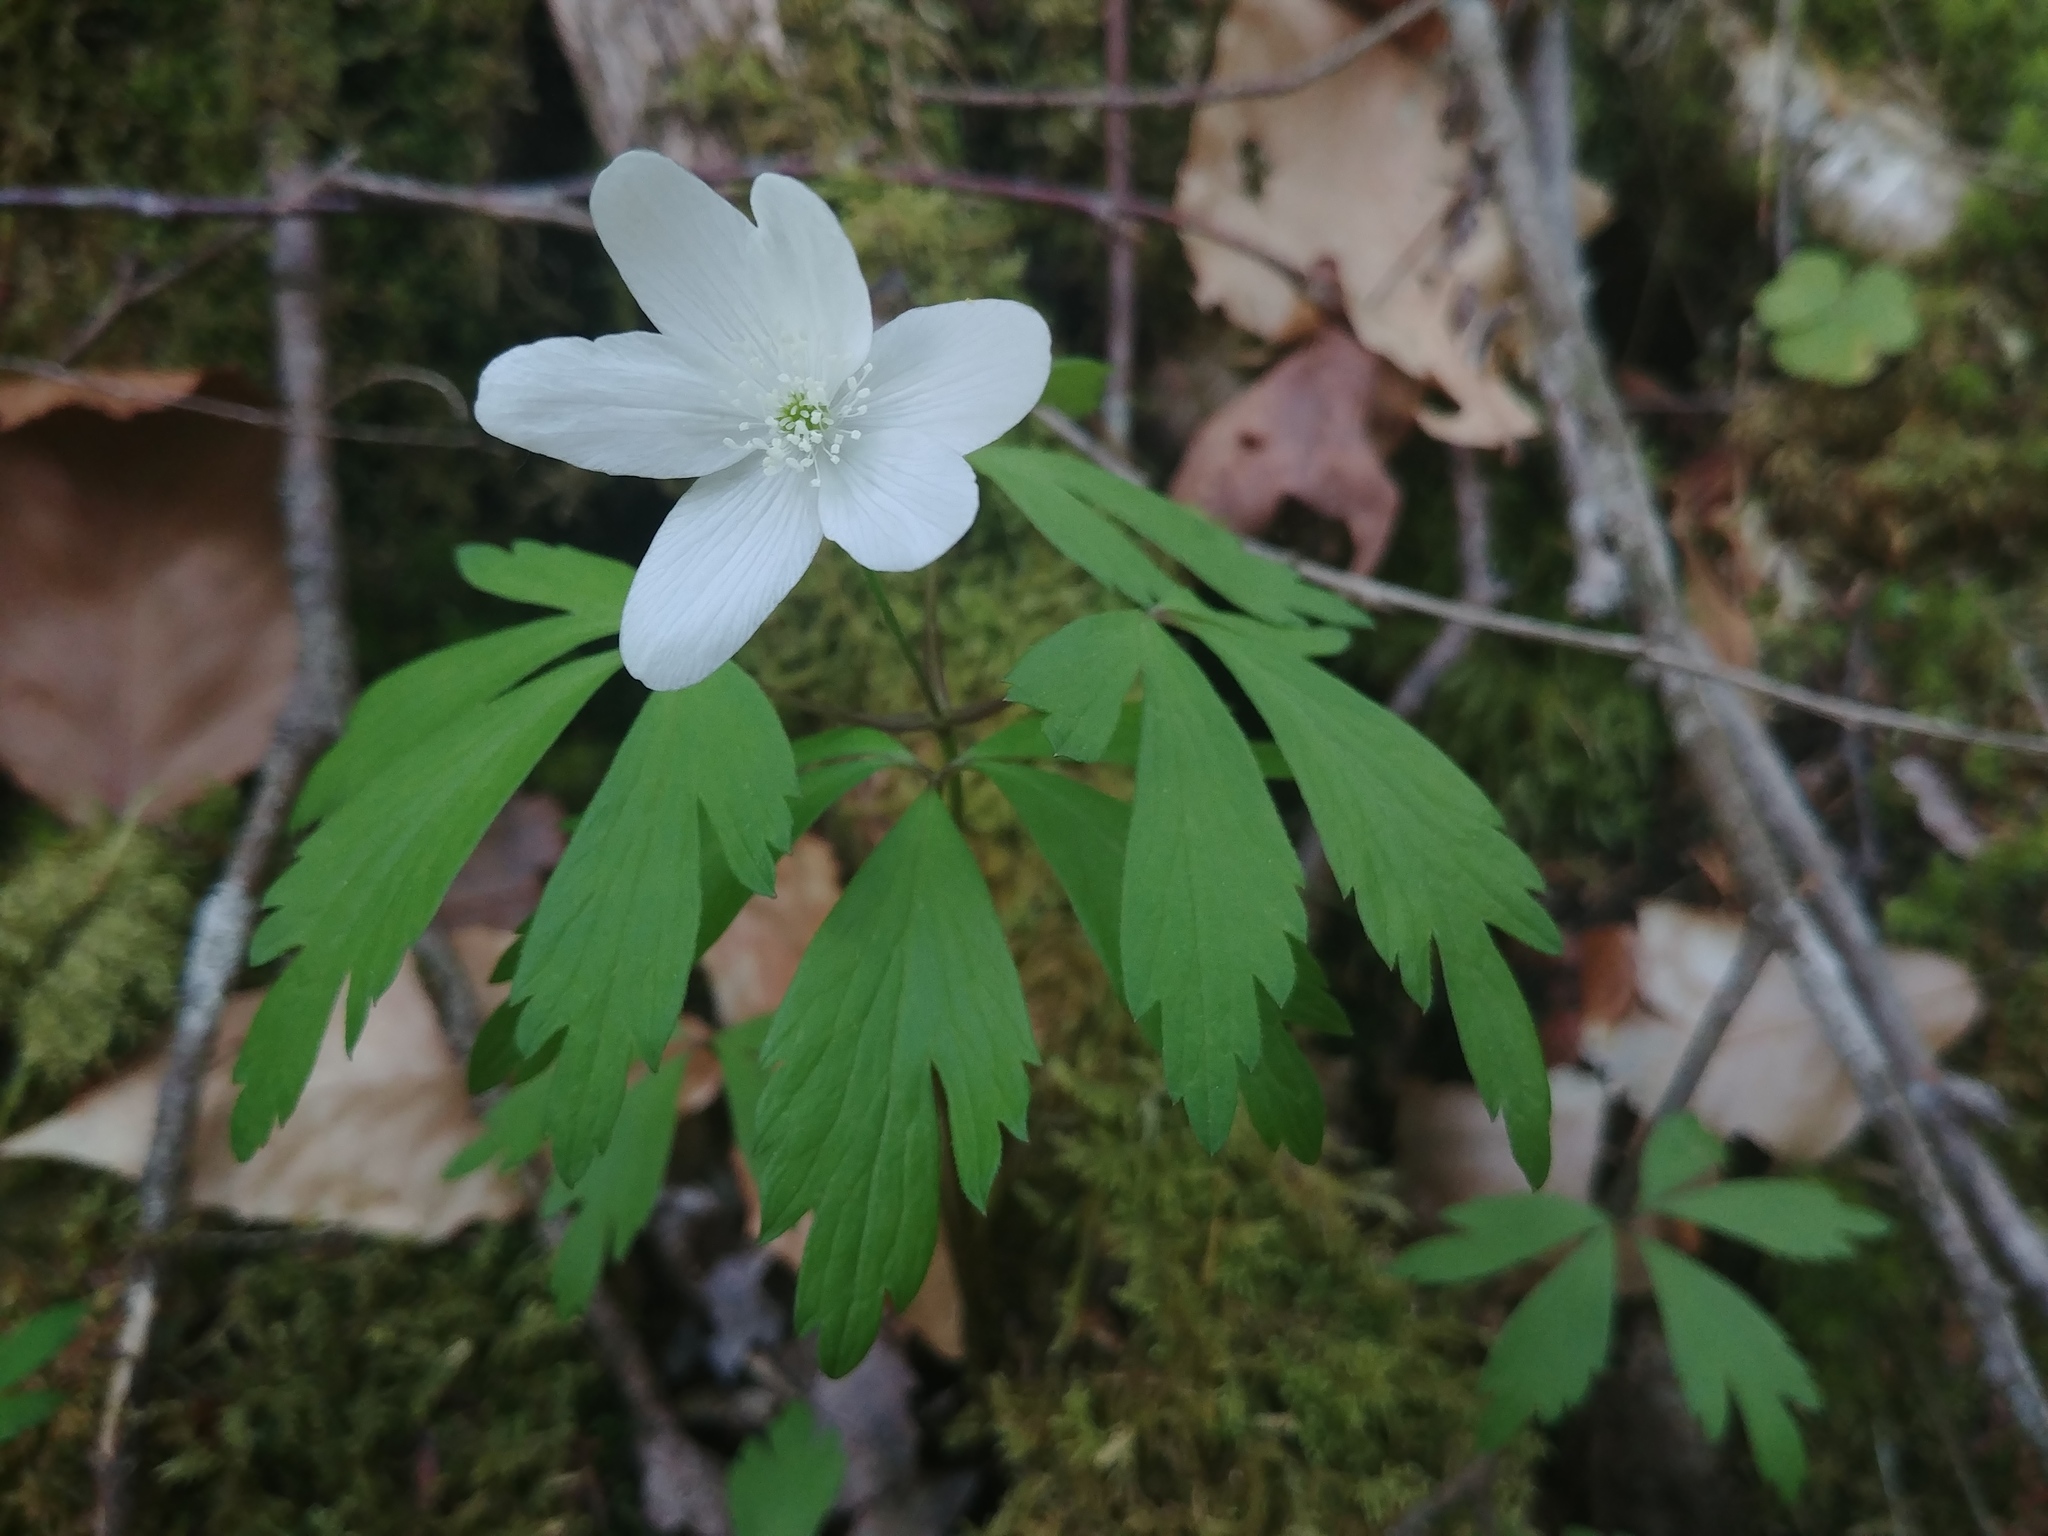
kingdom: Plantae
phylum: Tracheophyta
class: Magnoliopsida
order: Ranunculales
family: Ranunculaceae
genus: Anemone
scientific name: Anemone quinquefolia
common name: Wood anemone
